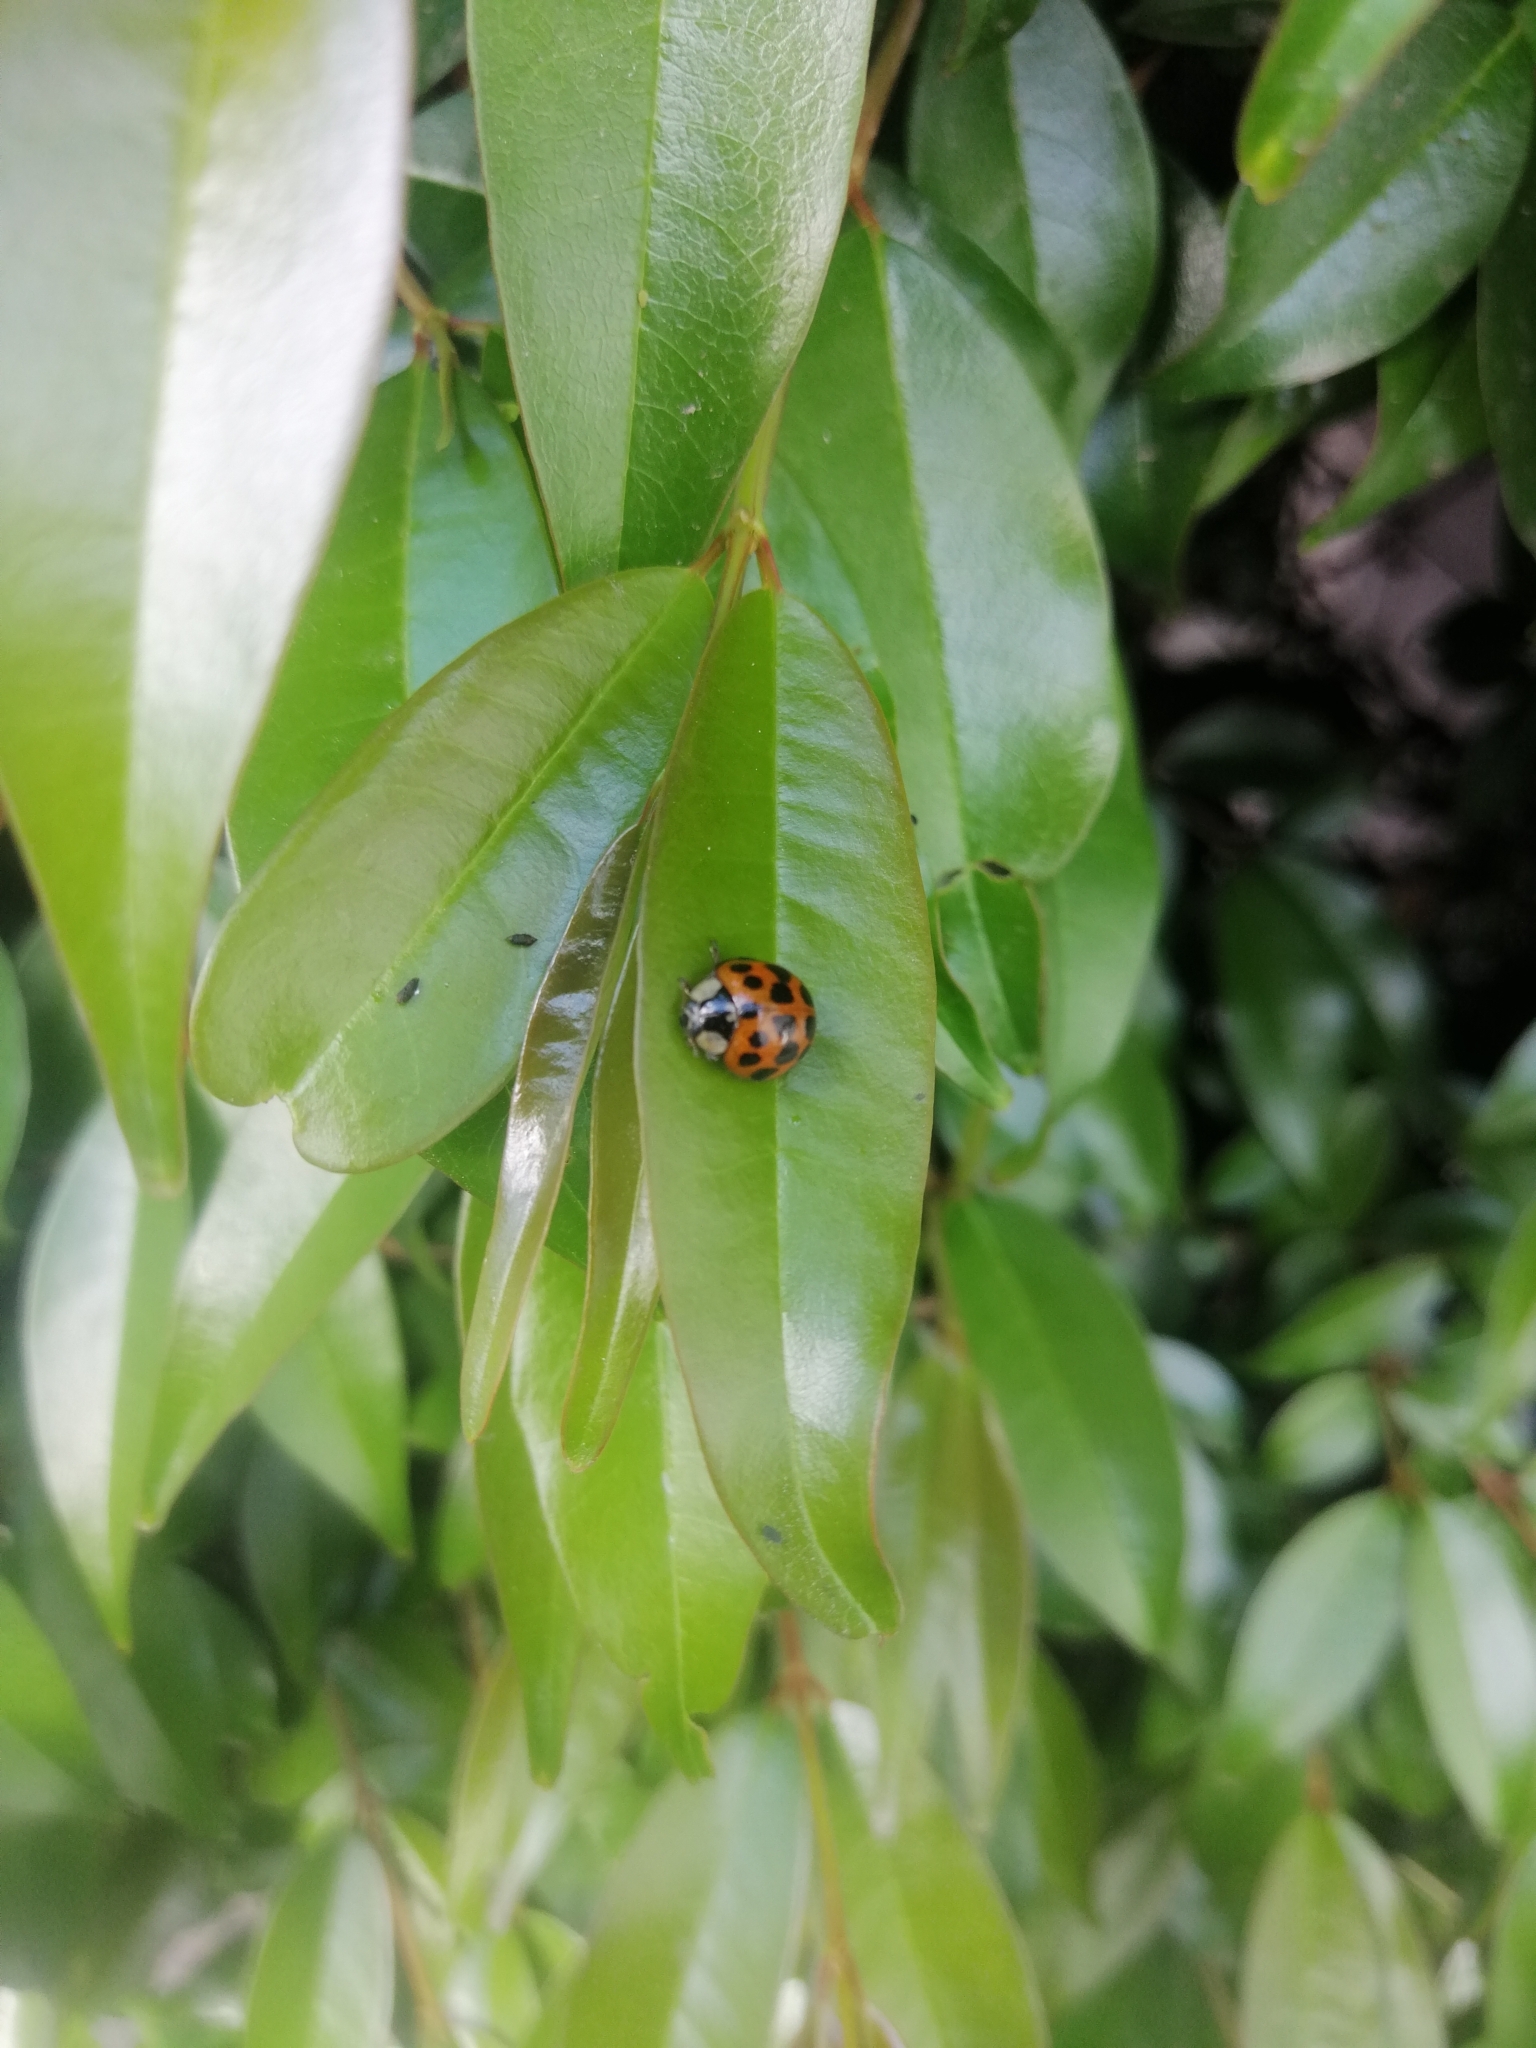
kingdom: Animalia
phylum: Arthropoda
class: Insecta
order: Coleoptera
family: Coccinellidae
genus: Harmonia
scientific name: Harmonia axyridis
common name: Harlequin ladybird
